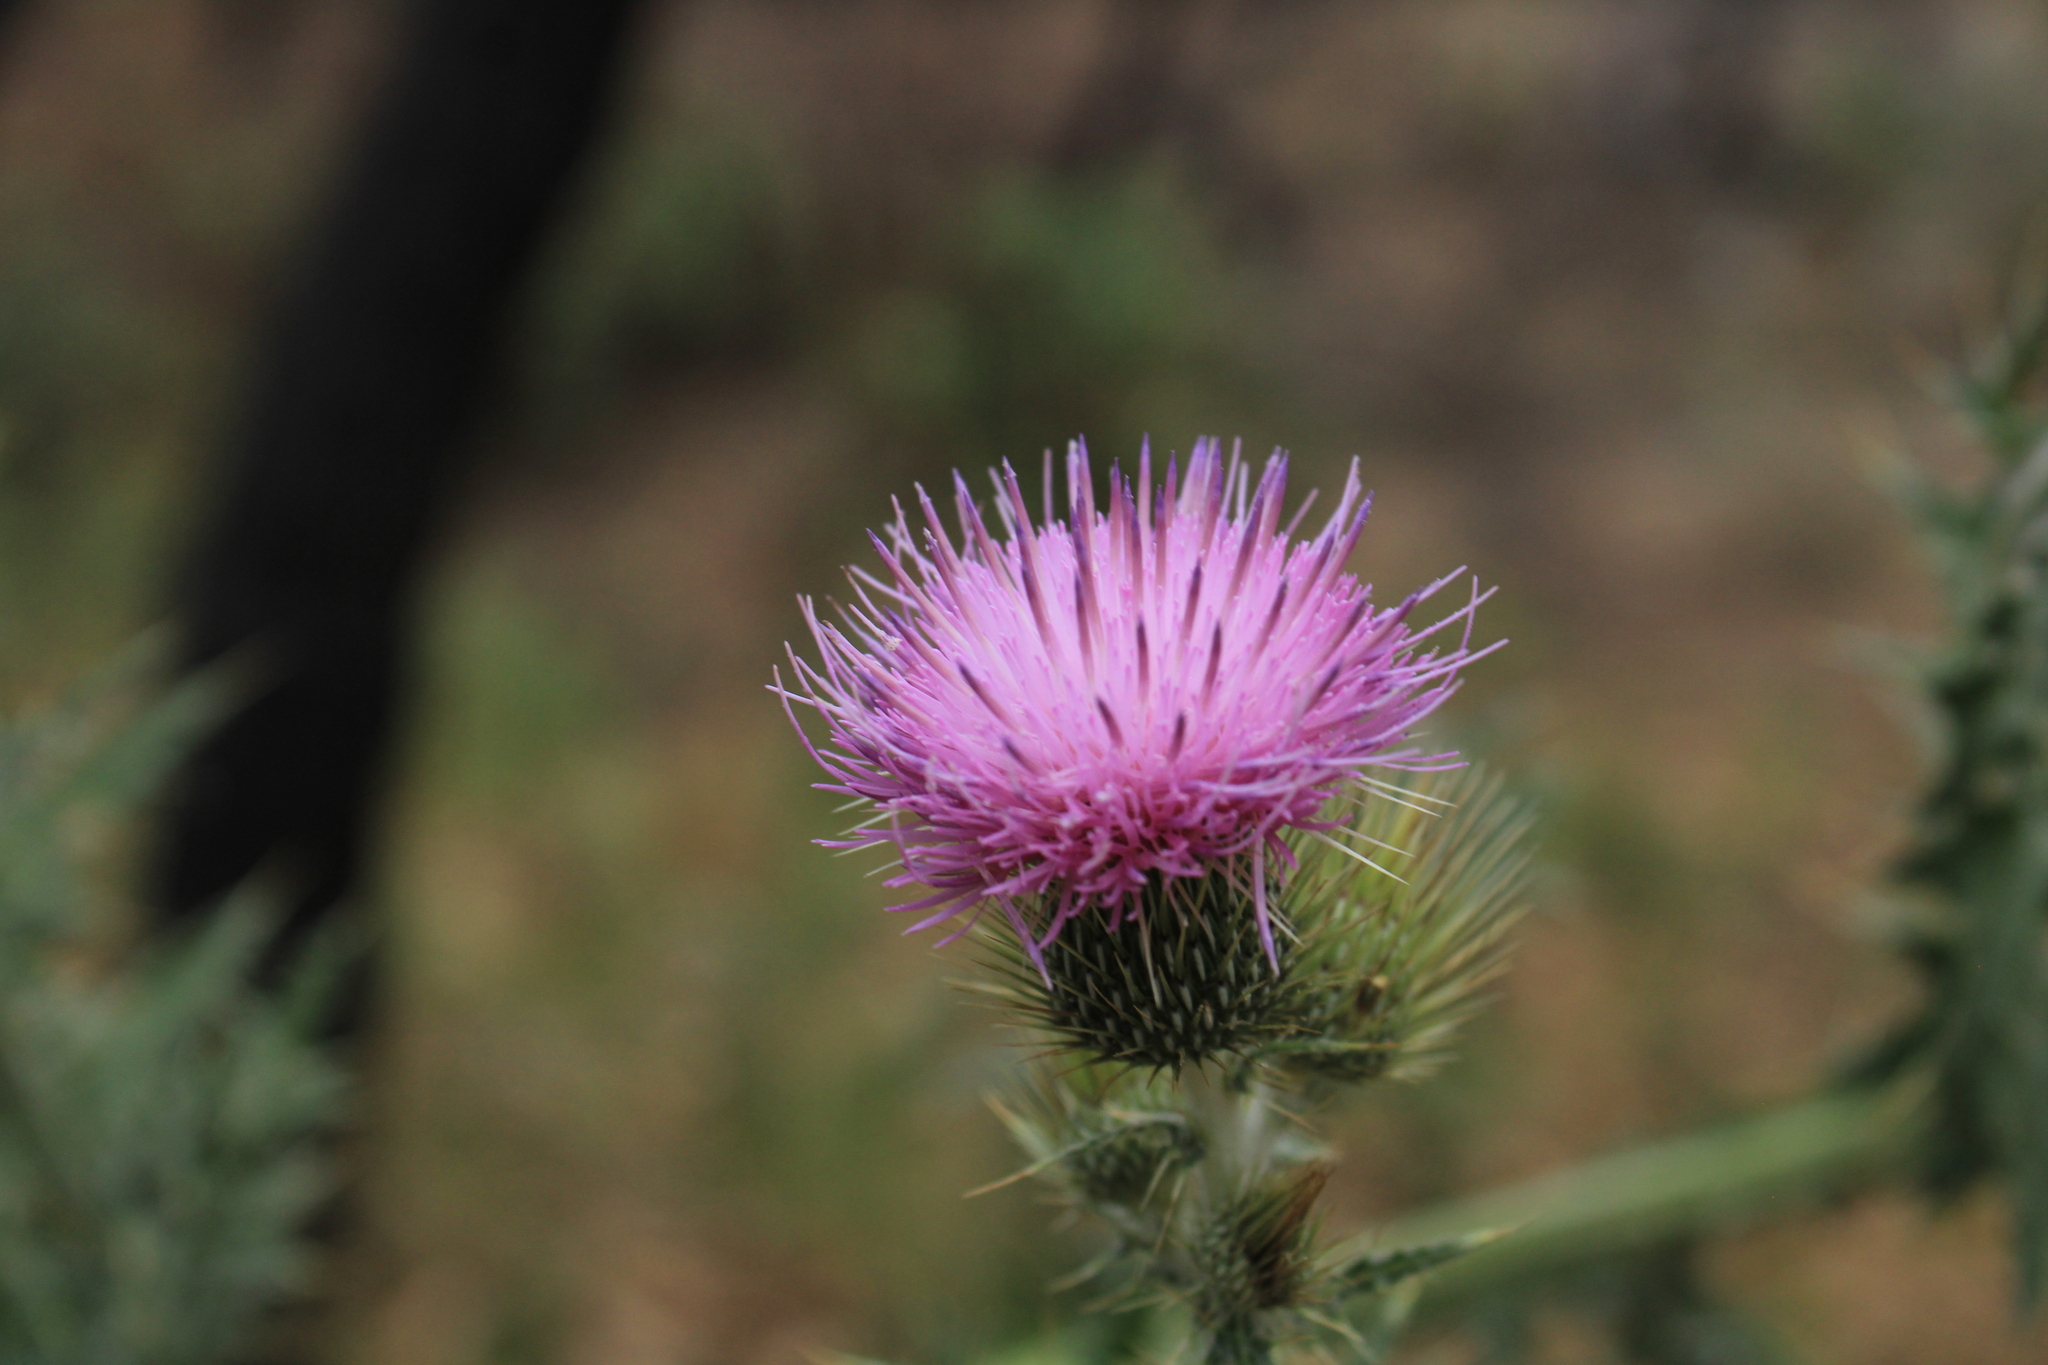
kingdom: Plantae
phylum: Tracheophyta
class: Magnoliopsida
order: Asterales
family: Asteraceae
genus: Cirsium
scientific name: Cirsium rhaphilepis
